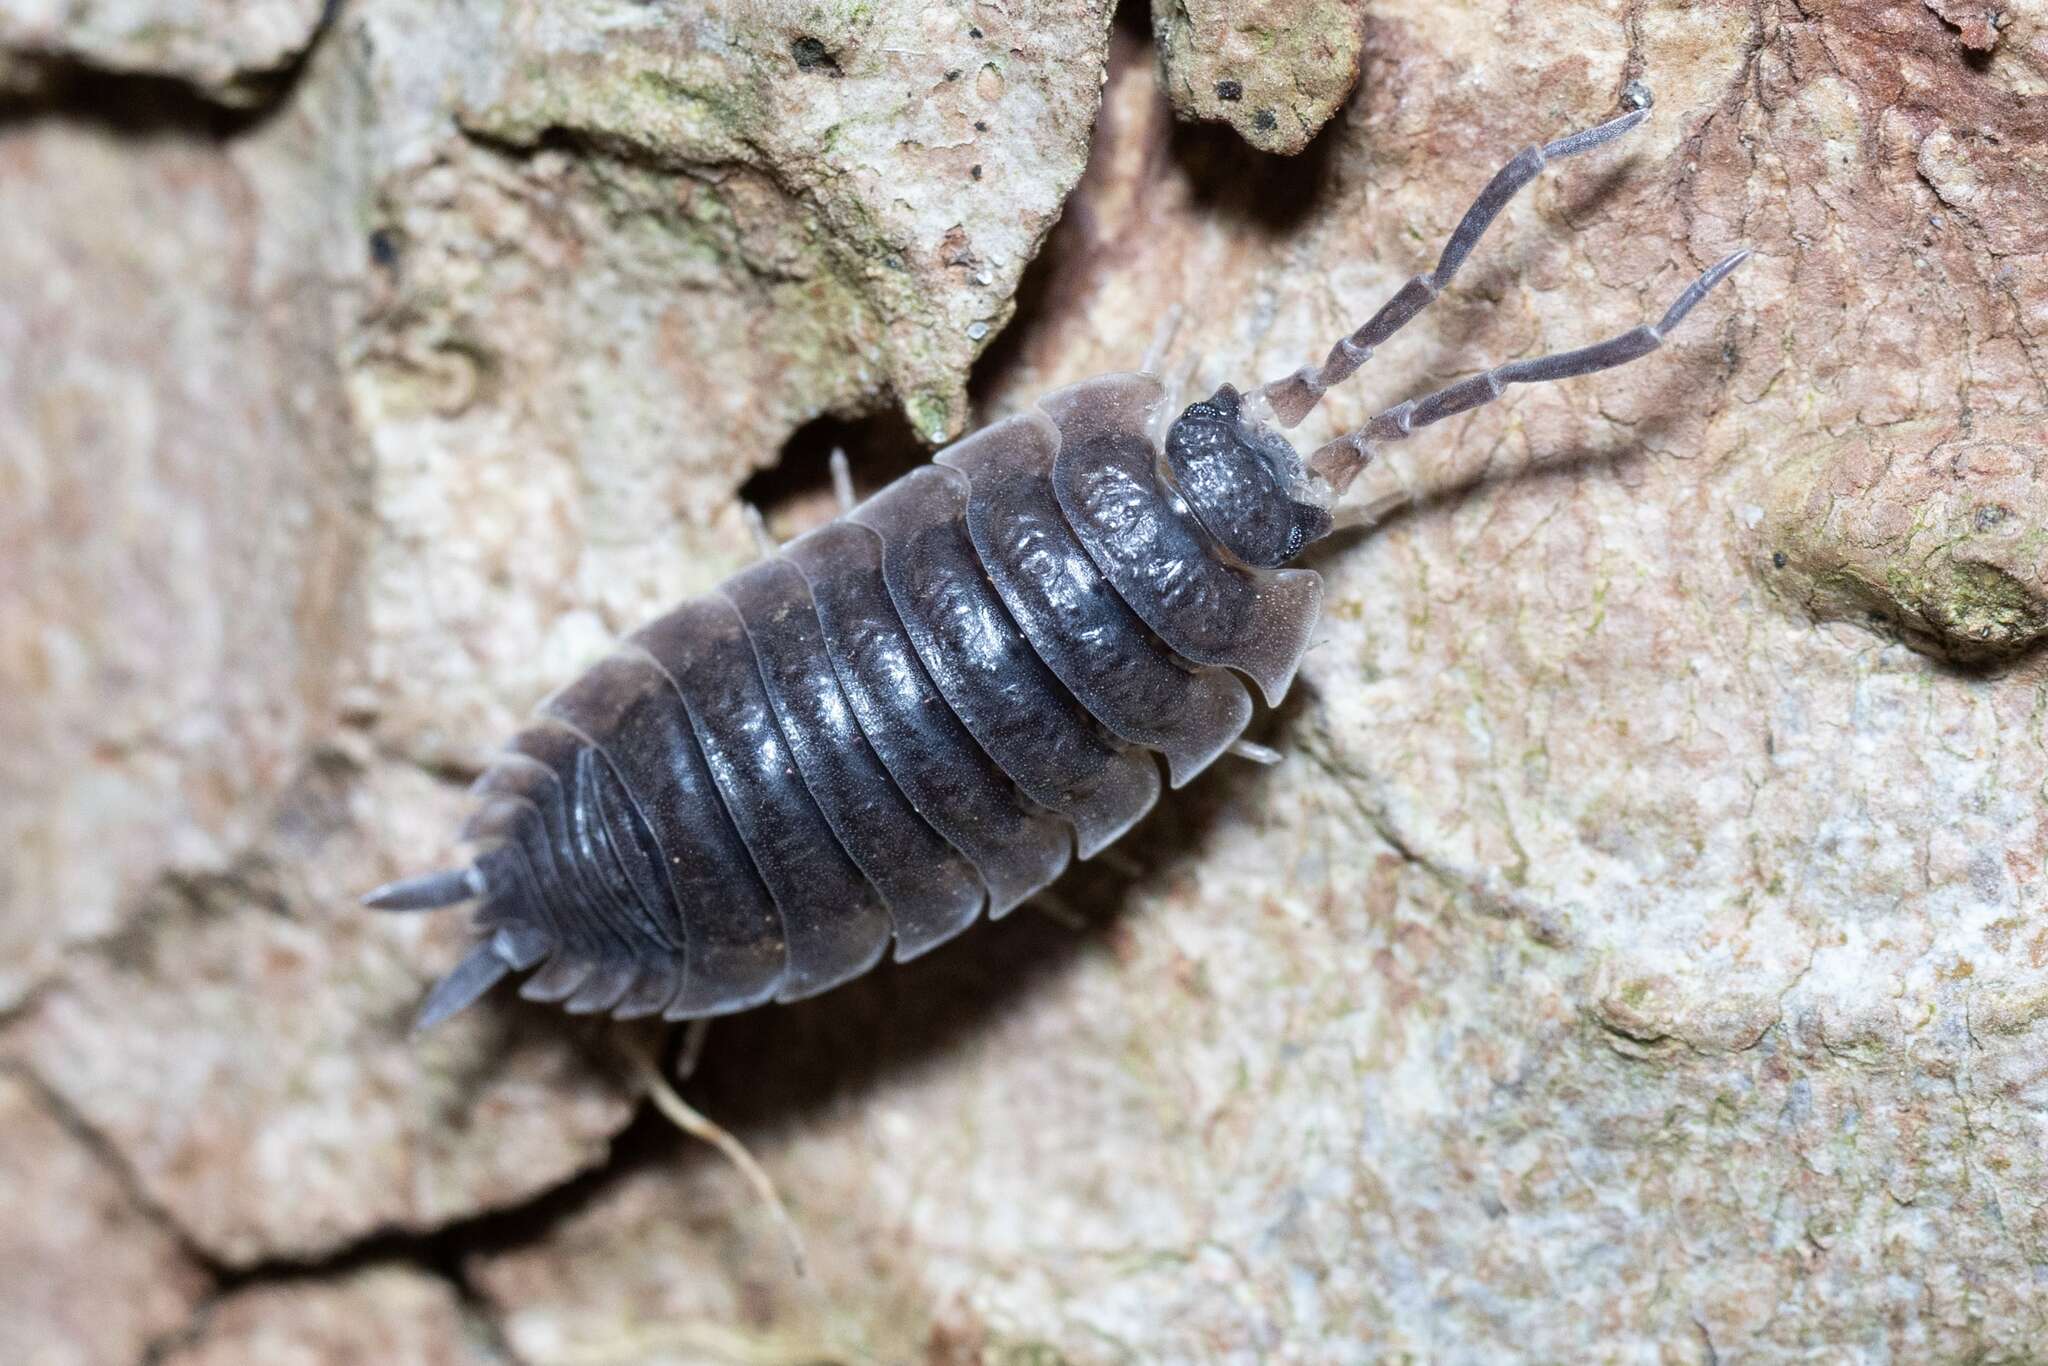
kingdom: Animalia
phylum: Arthropoda
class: Malacostraca
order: Isopoda
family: Porcellionidae
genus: Porcellio
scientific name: Porcellio scaber
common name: Common rough woodlouse
